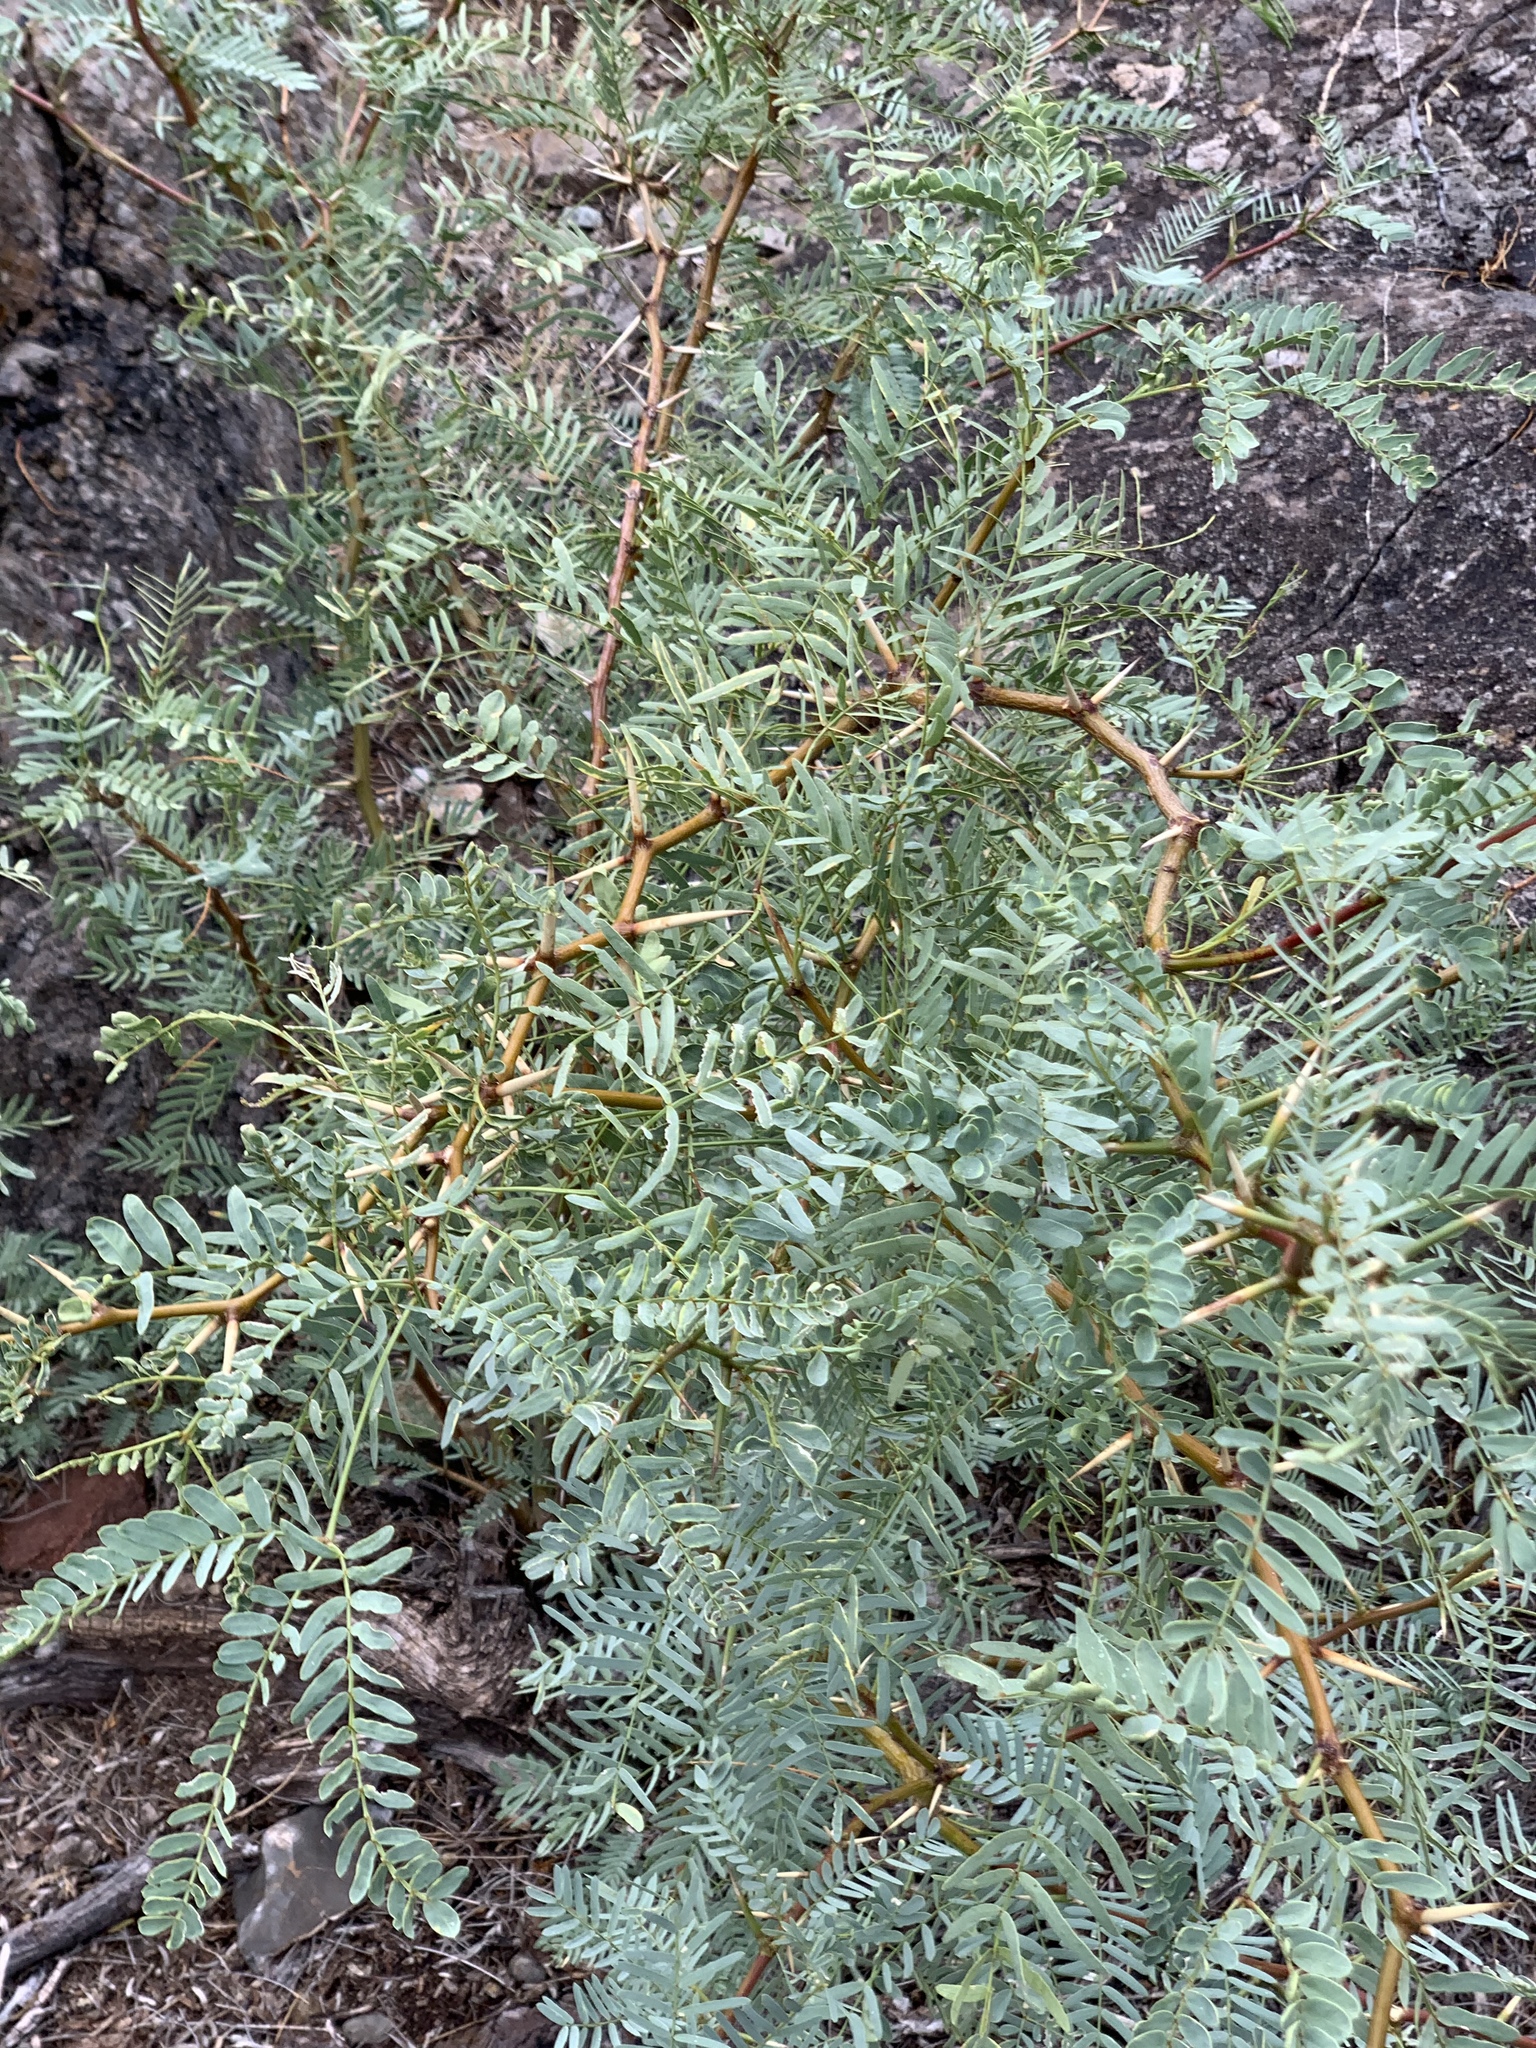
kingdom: Plantae
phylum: Tracheophyta
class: Magnoliopsida
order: Fabales
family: Fabaceae
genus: Prosopis
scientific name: Prosopis glandulosa
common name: Honey mesquite
